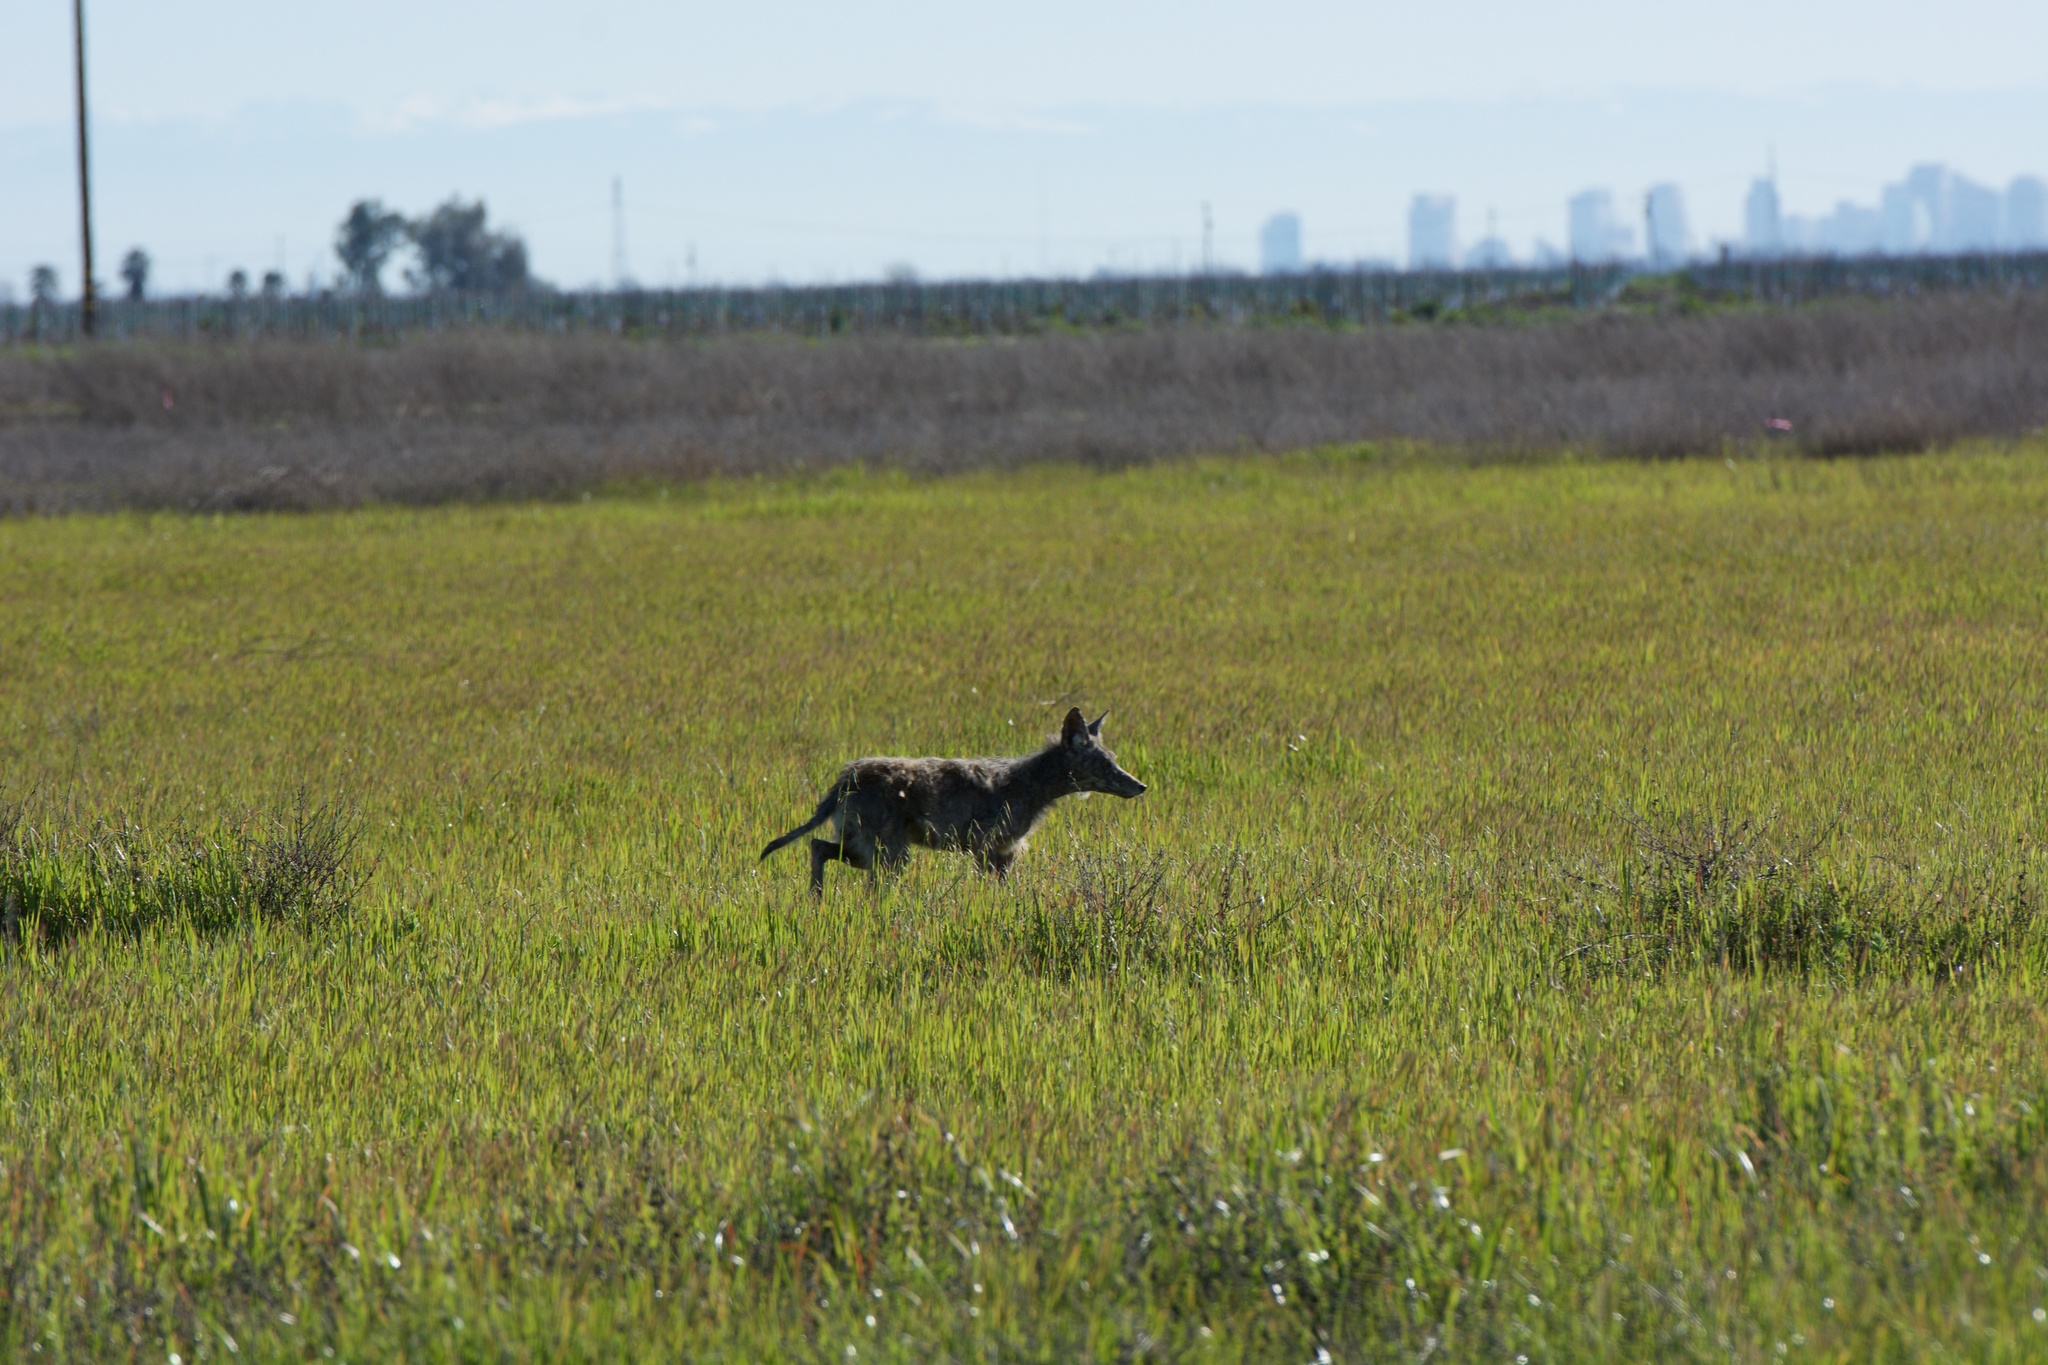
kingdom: Animalia
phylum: Chordata
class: Mammalia
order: Carnivora
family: Canidae
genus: Canis
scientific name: Canis latrans
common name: Coyote
